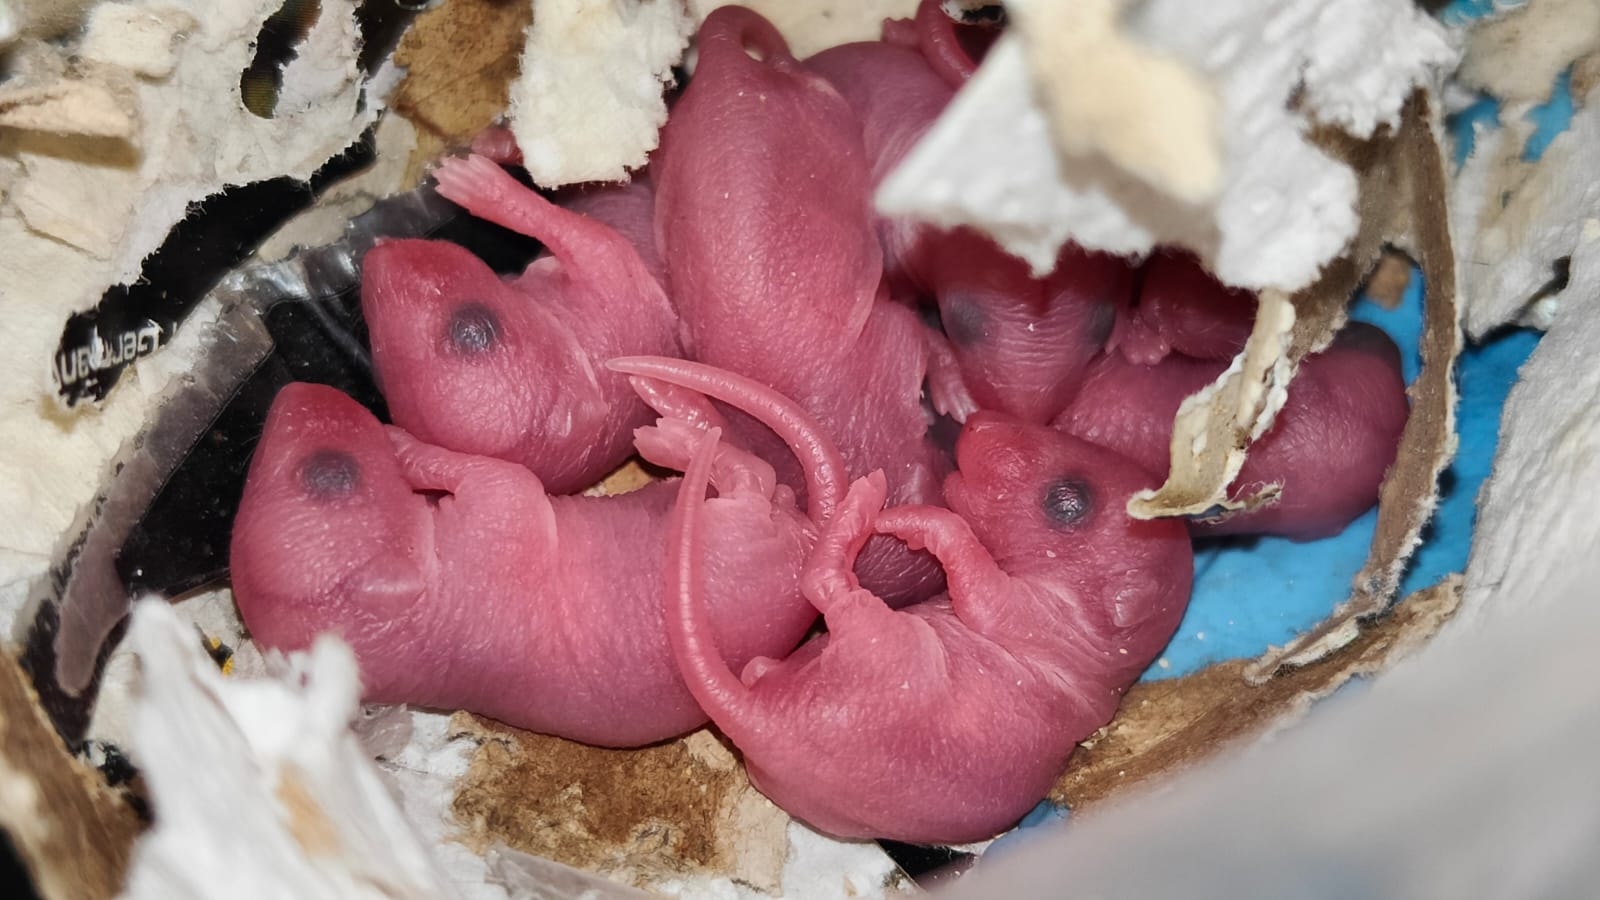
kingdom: Animalia
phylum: Chordata
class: Mammalia
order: Rodentia
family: Muridae
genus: Mus
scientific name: Mus musculus
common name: House mouse
